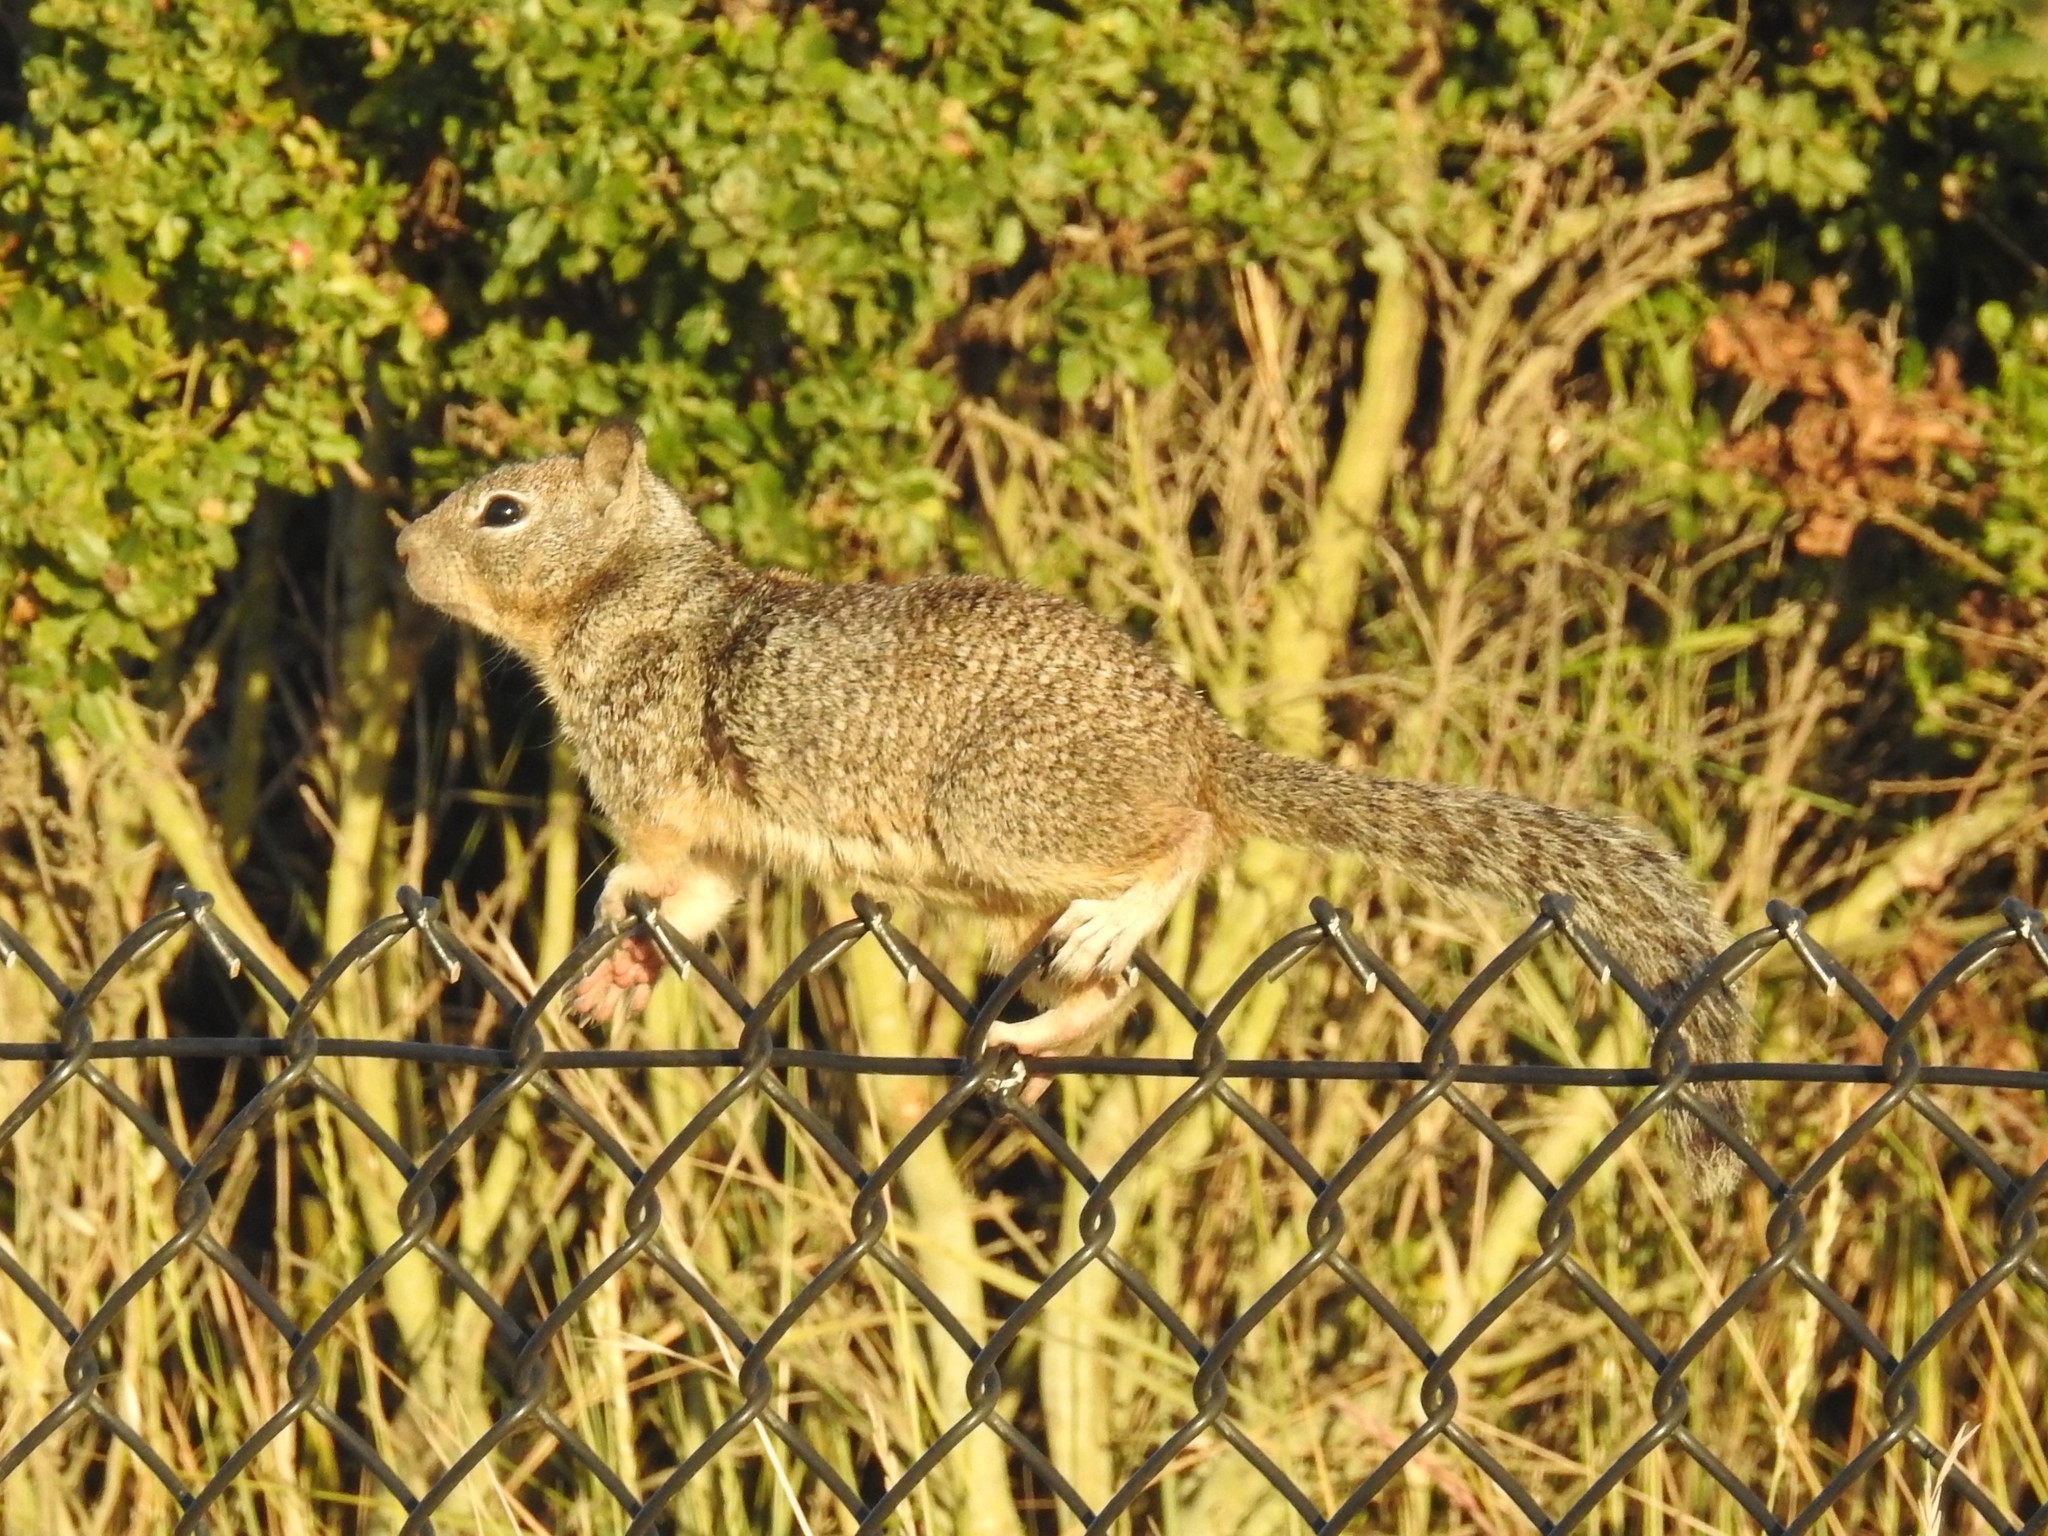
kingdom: Animalia
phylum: Chordata
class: Mammalia
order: Rodentia
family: Sciuridae
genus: Otospermophilus
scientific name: Otospermophilus beecheyi
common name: California ground squirrel
